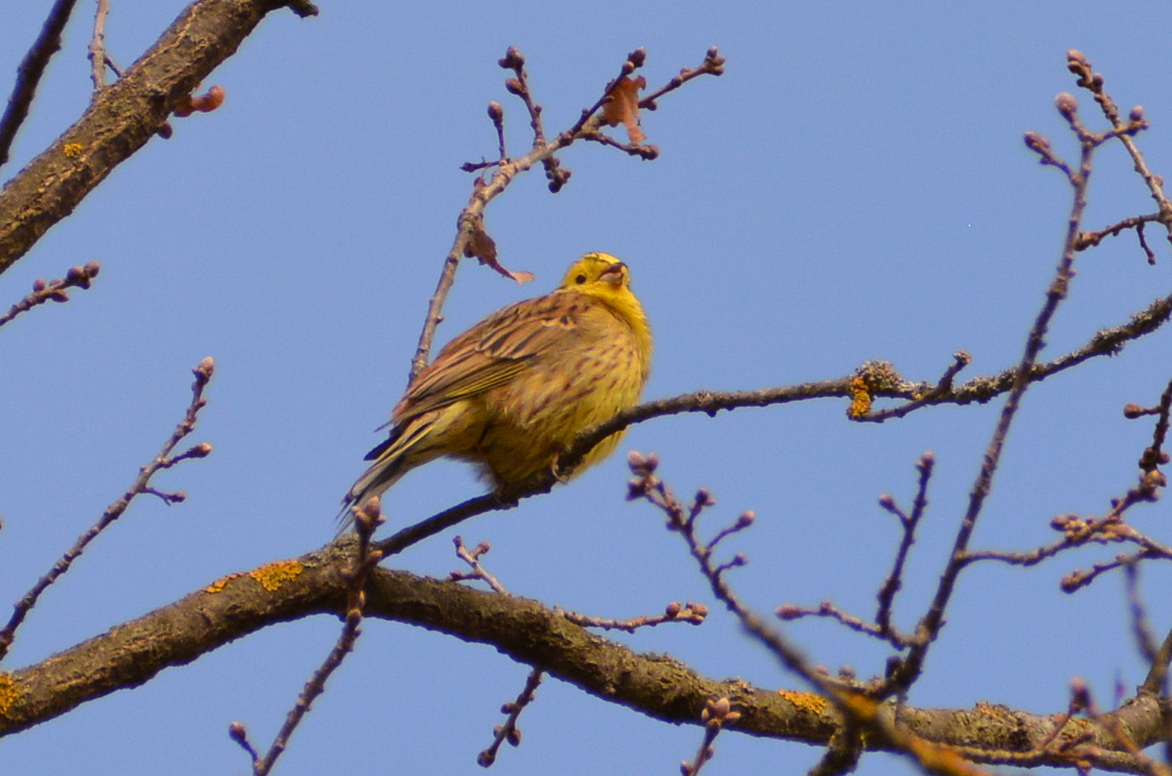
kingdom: Animalia
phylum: Chordata
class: Aves
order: Passeriformes
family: Emberizidae
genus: Emberiza
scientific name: Emberiza citrinella
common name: Yellowhammer
